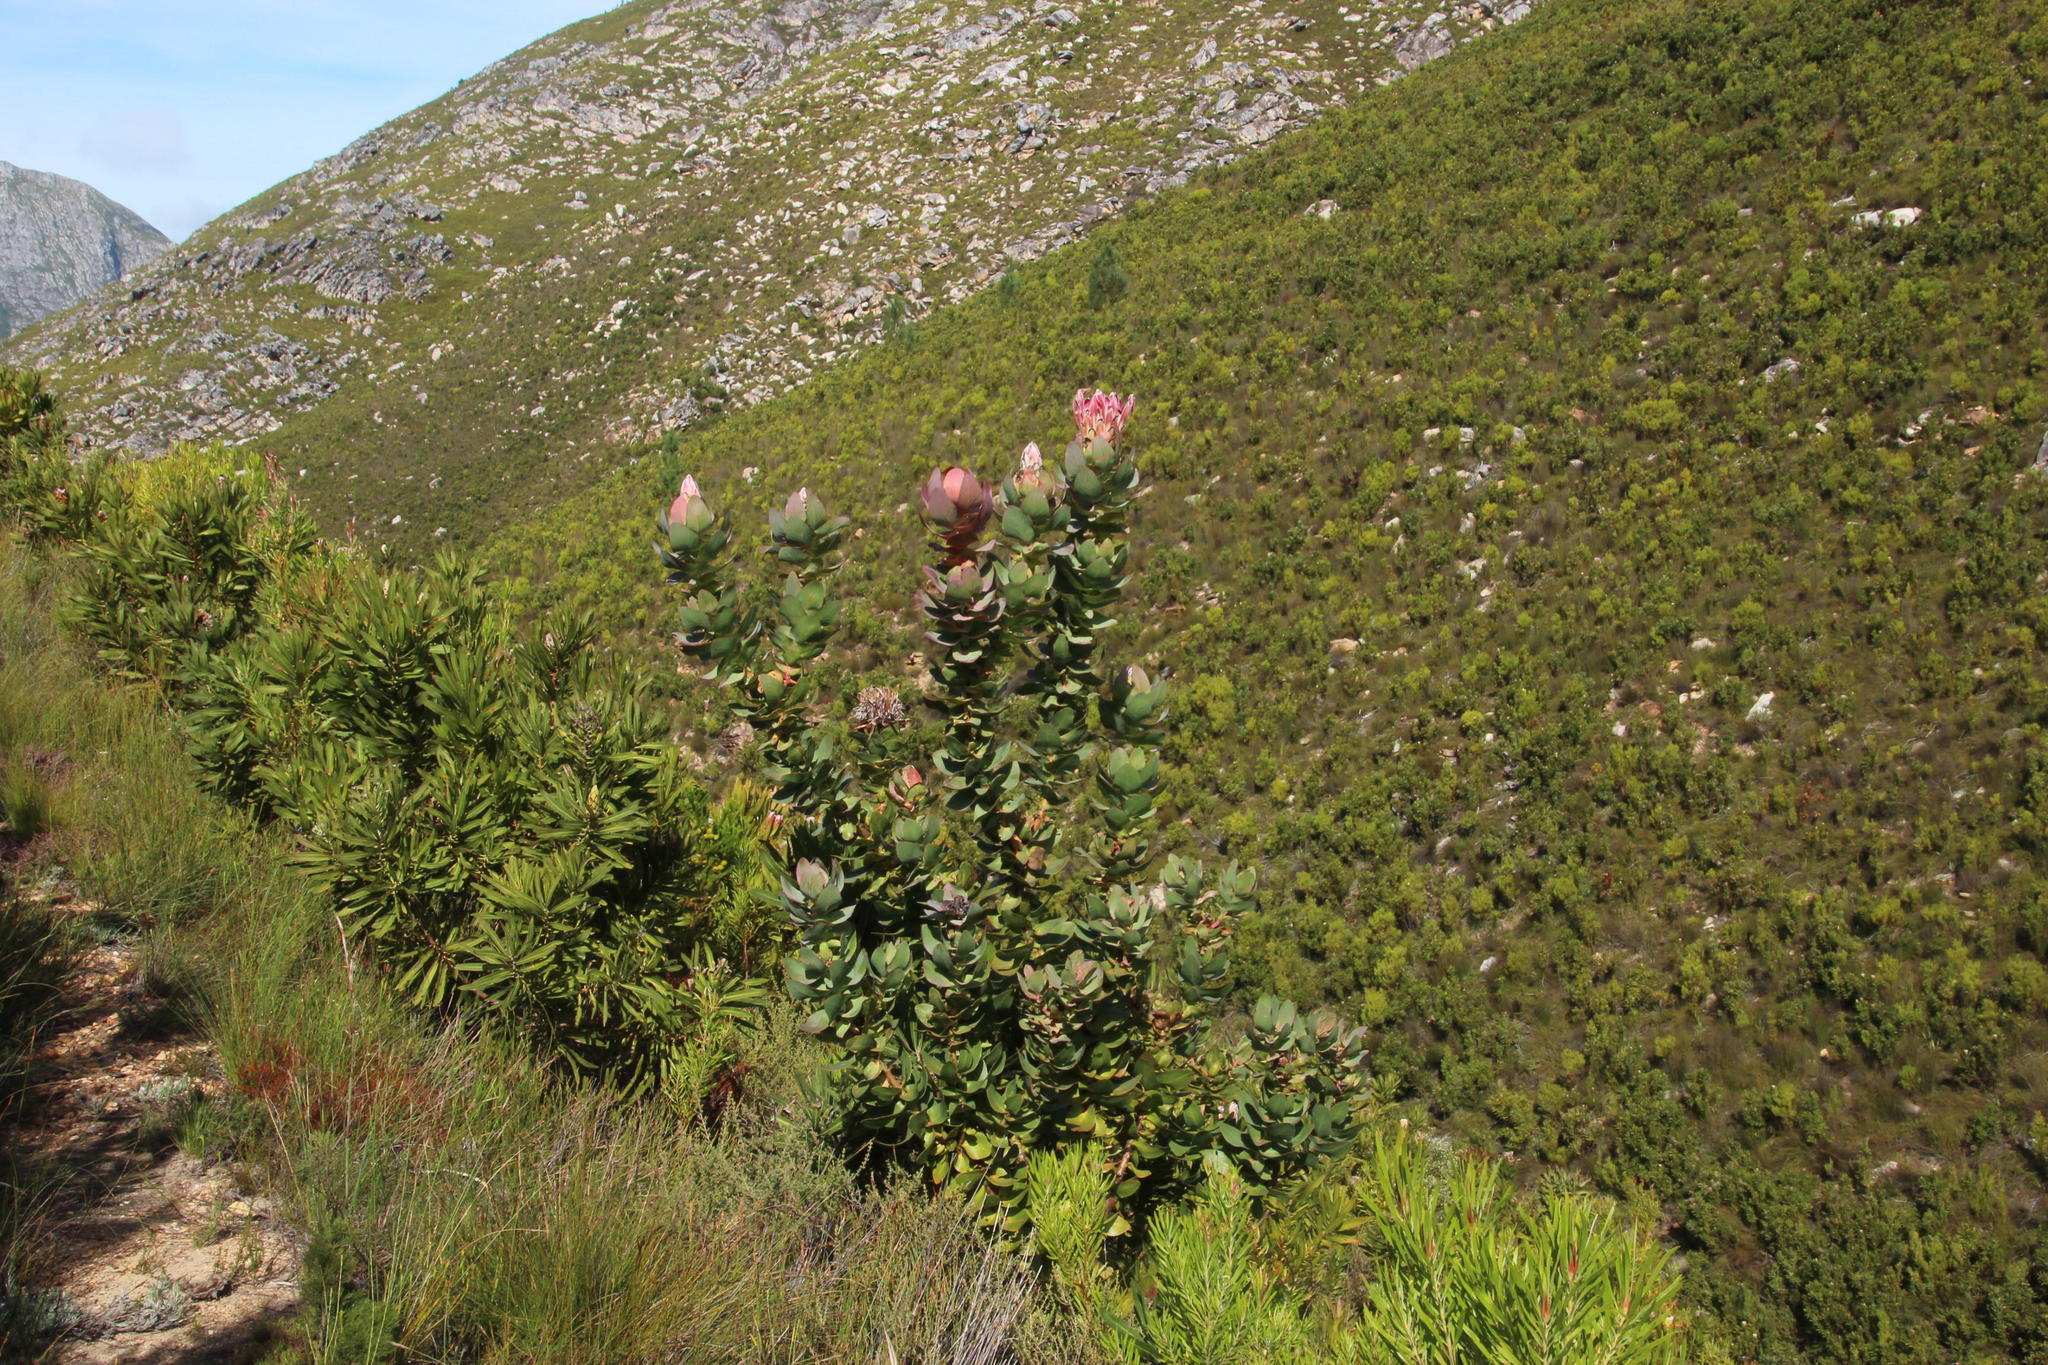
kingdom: Plantae
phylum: Tracheophyta
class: Magnoliopsida
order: Proteales
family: Proteaceae
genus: Protea
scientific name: Protea eximia
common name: Broad-leaved sugarbush
